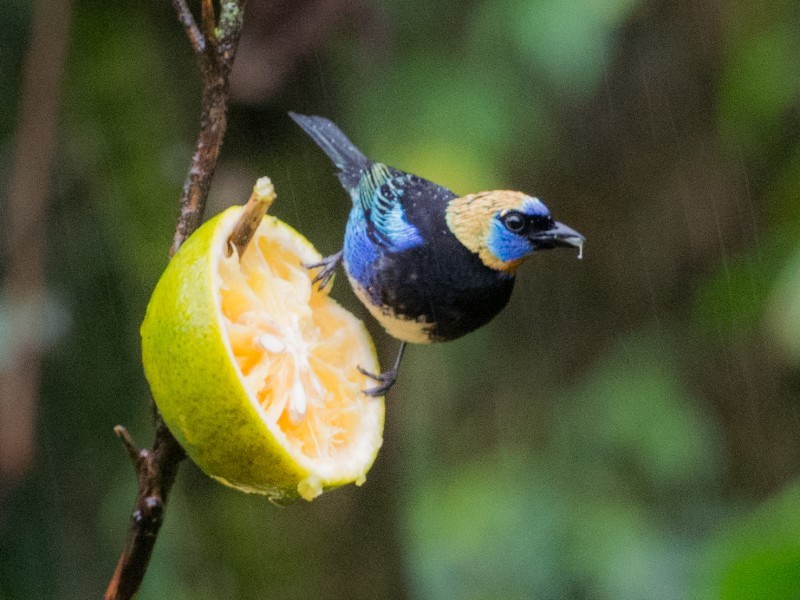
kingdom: Animalia
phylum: Chordata
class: Aves
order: Passeriformes
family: Thraupidae
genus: Stilpnia
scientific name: Stilpnia larvata
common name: Golden-hooded tanager
